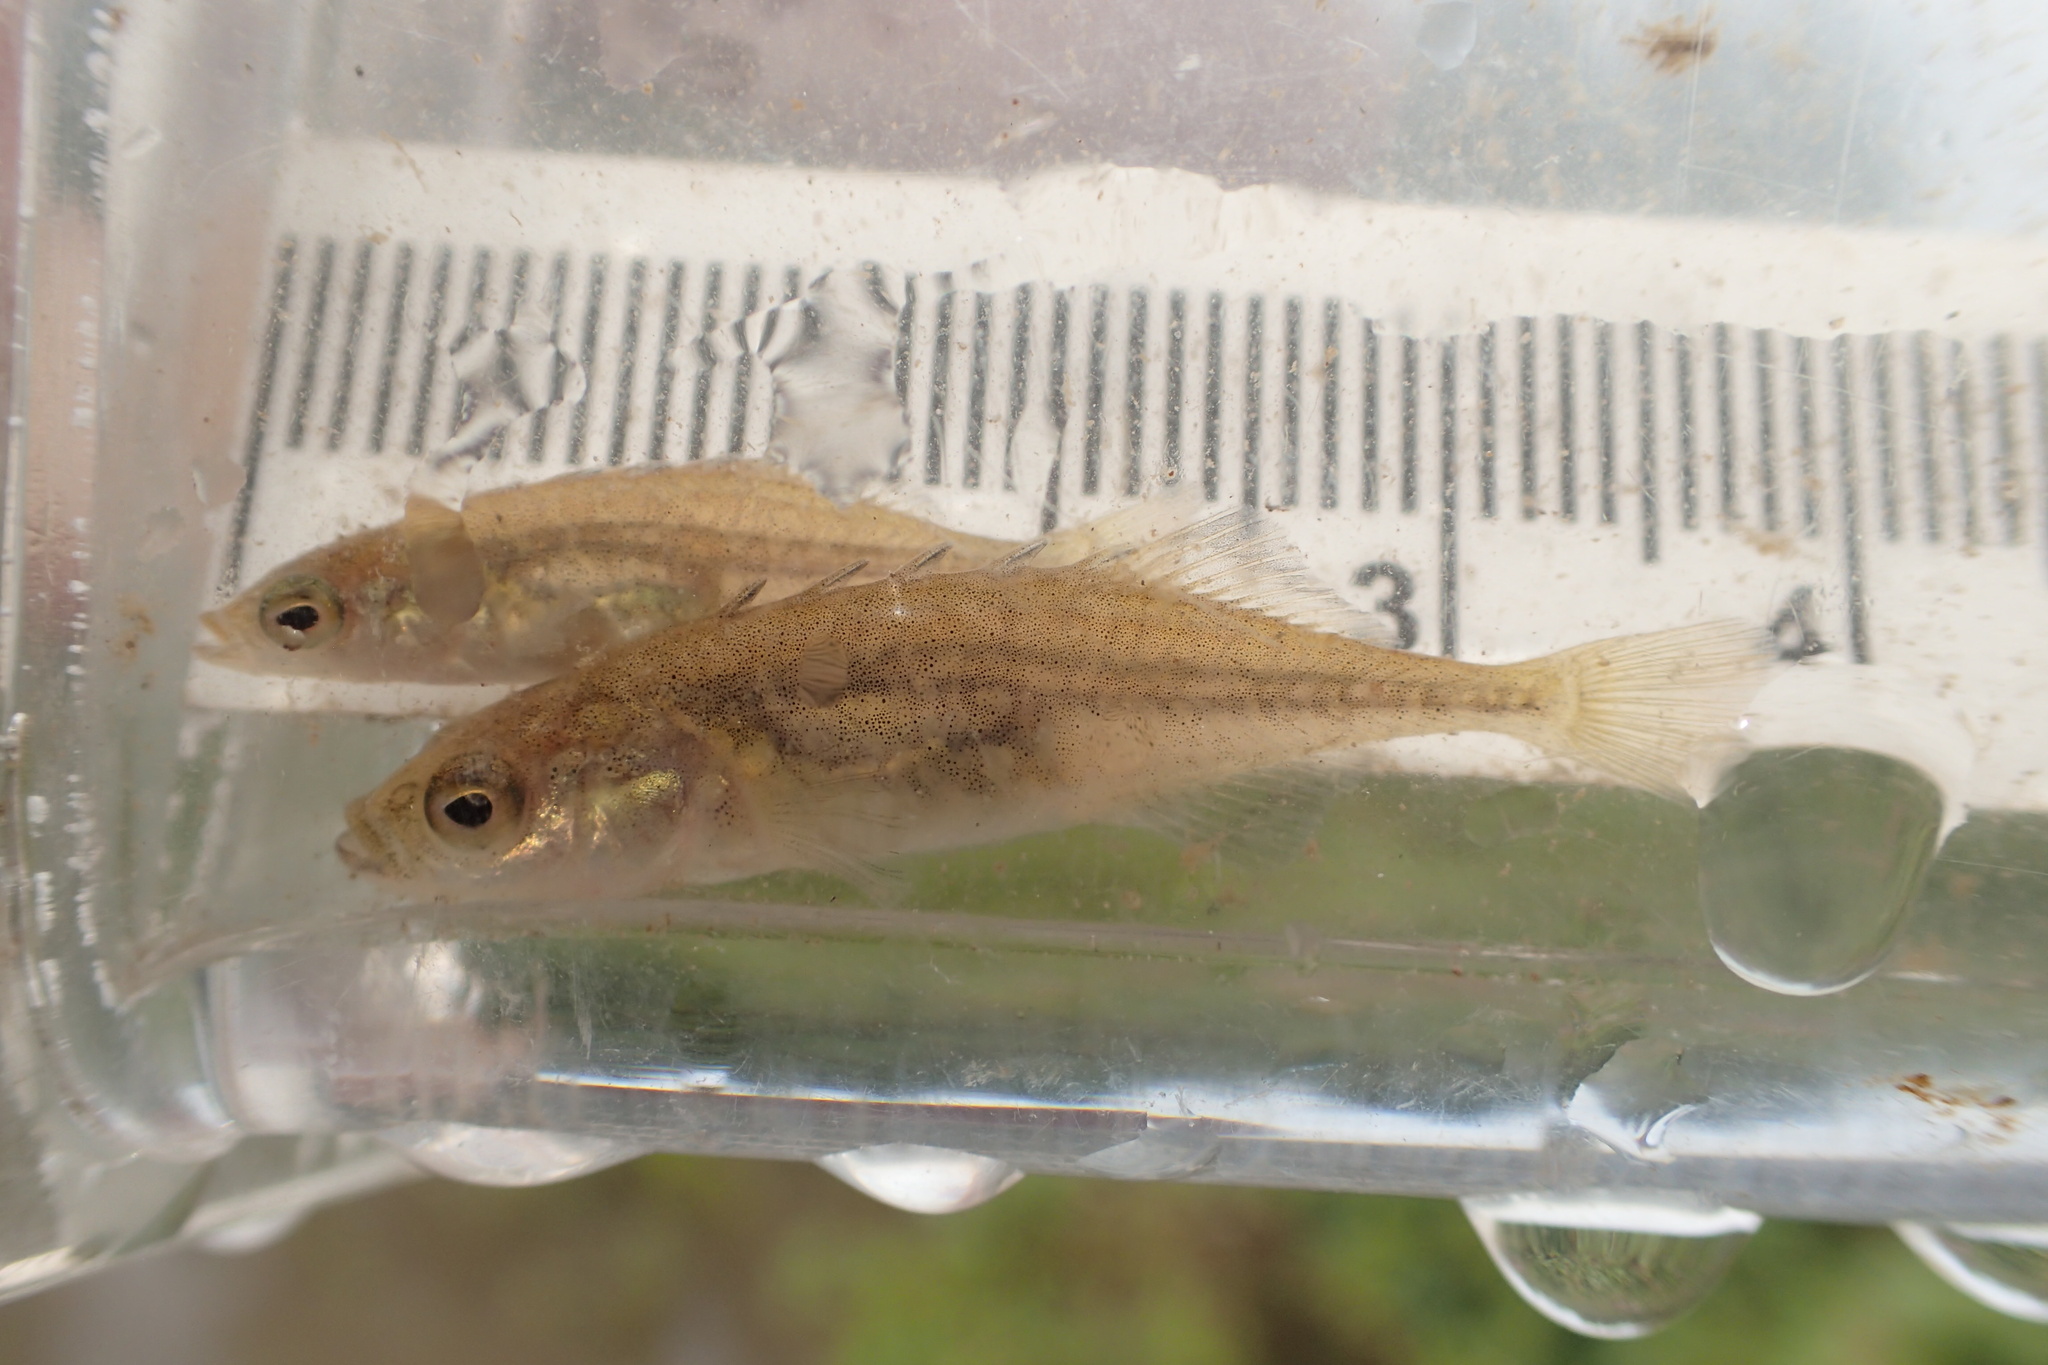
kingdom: Animalia
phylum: Chordata
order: Gasterosteiformes
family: Gasterosteidae
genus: Culaea
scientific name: Culaea inconstans
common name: Brook stickleback
